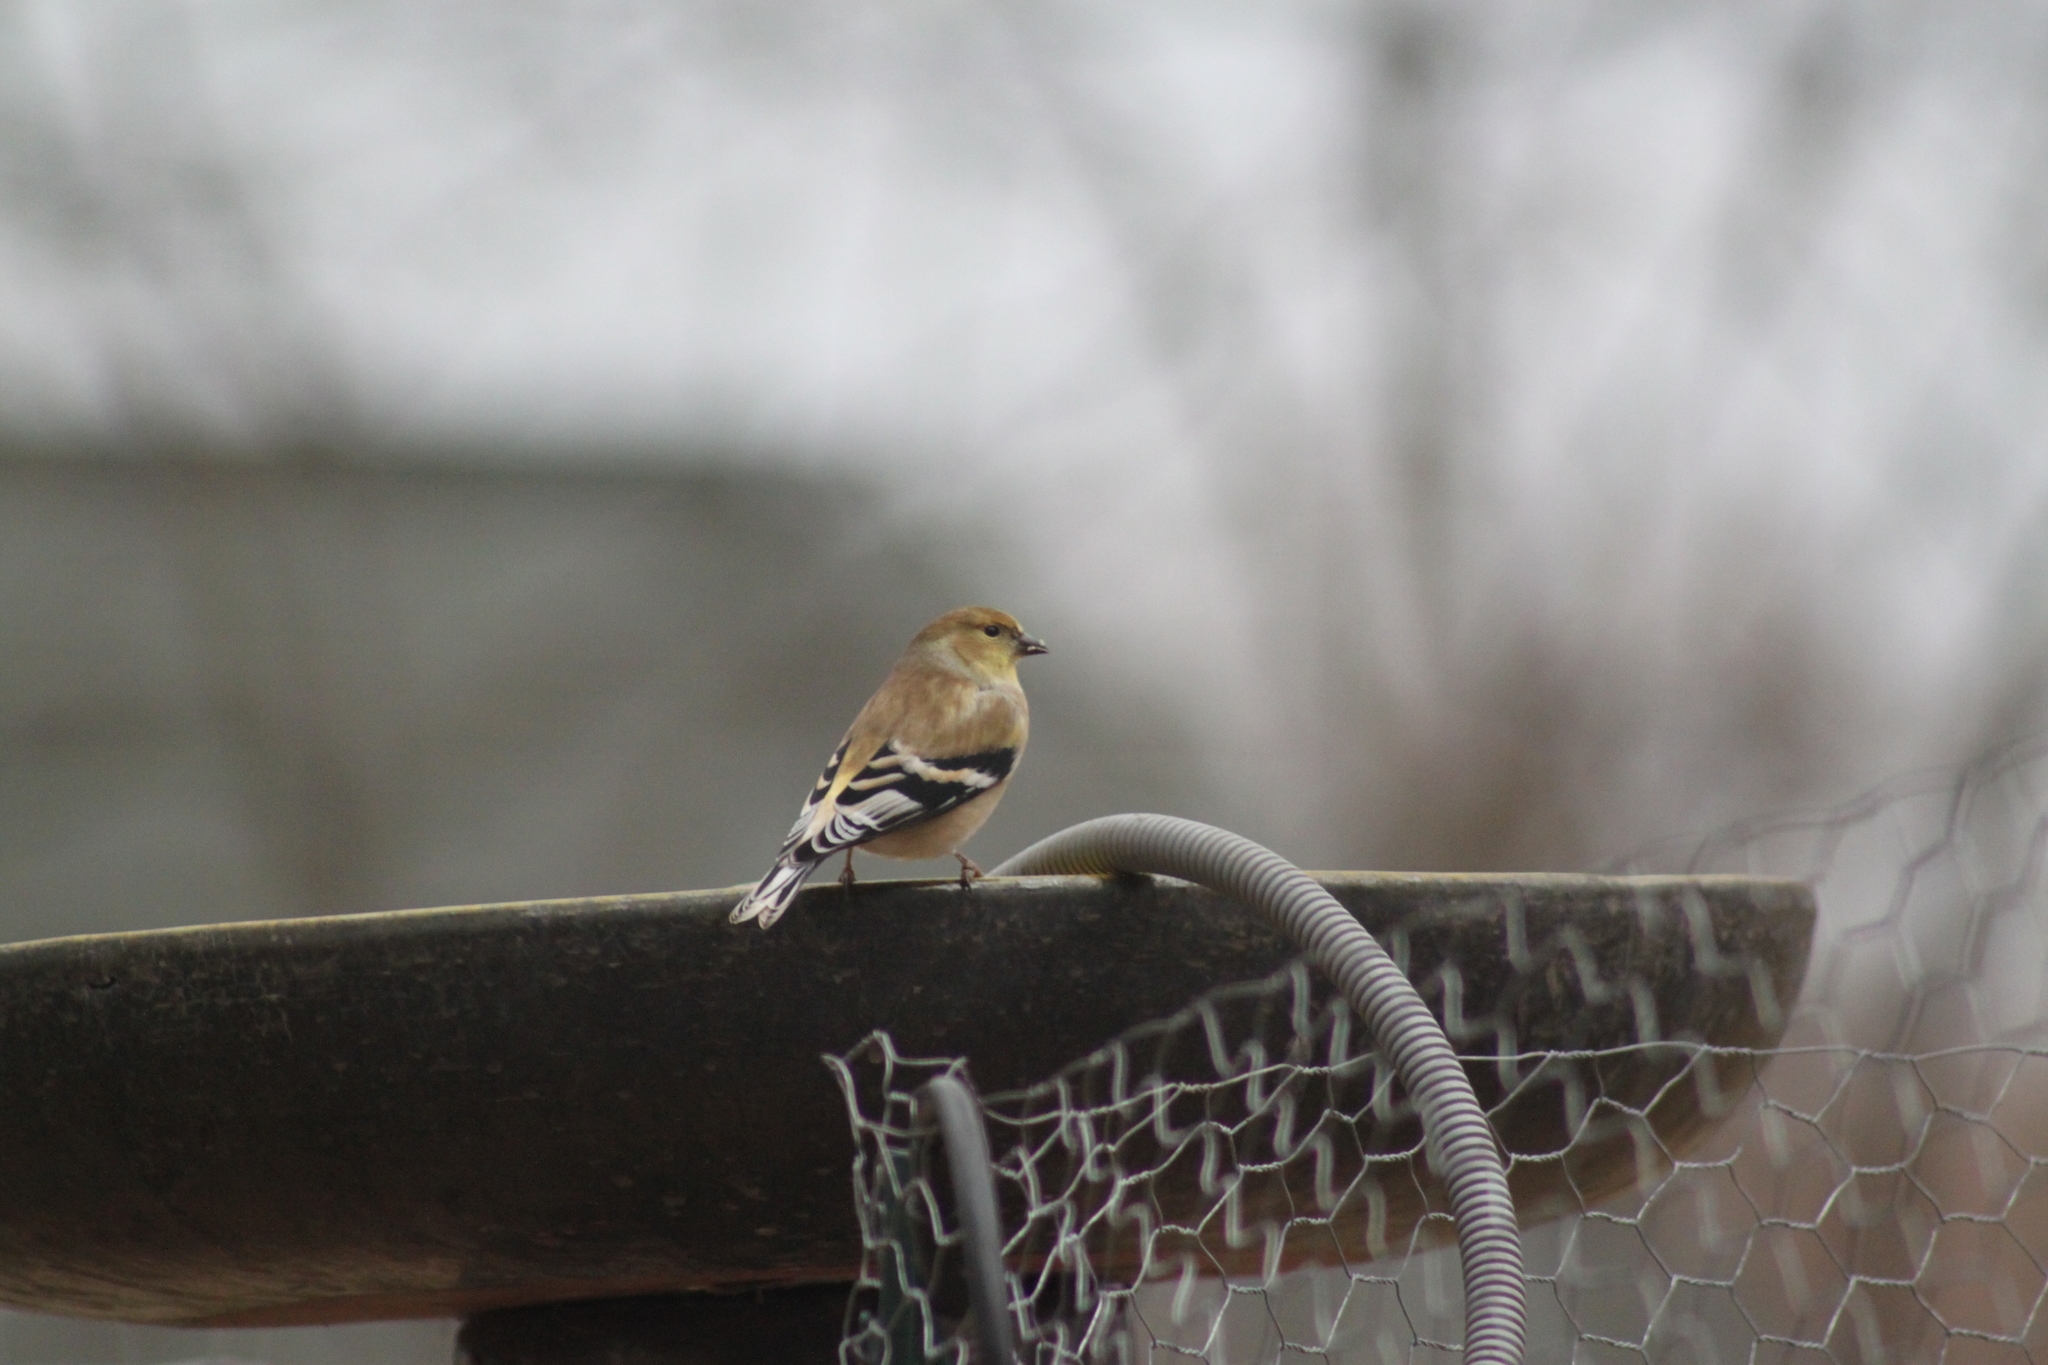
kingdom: Animalia
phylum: Chordata
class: Aves
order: Passeriformes
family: Fringillidae
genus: Spinus
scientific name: Spinus tristis
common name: American goldfinch
